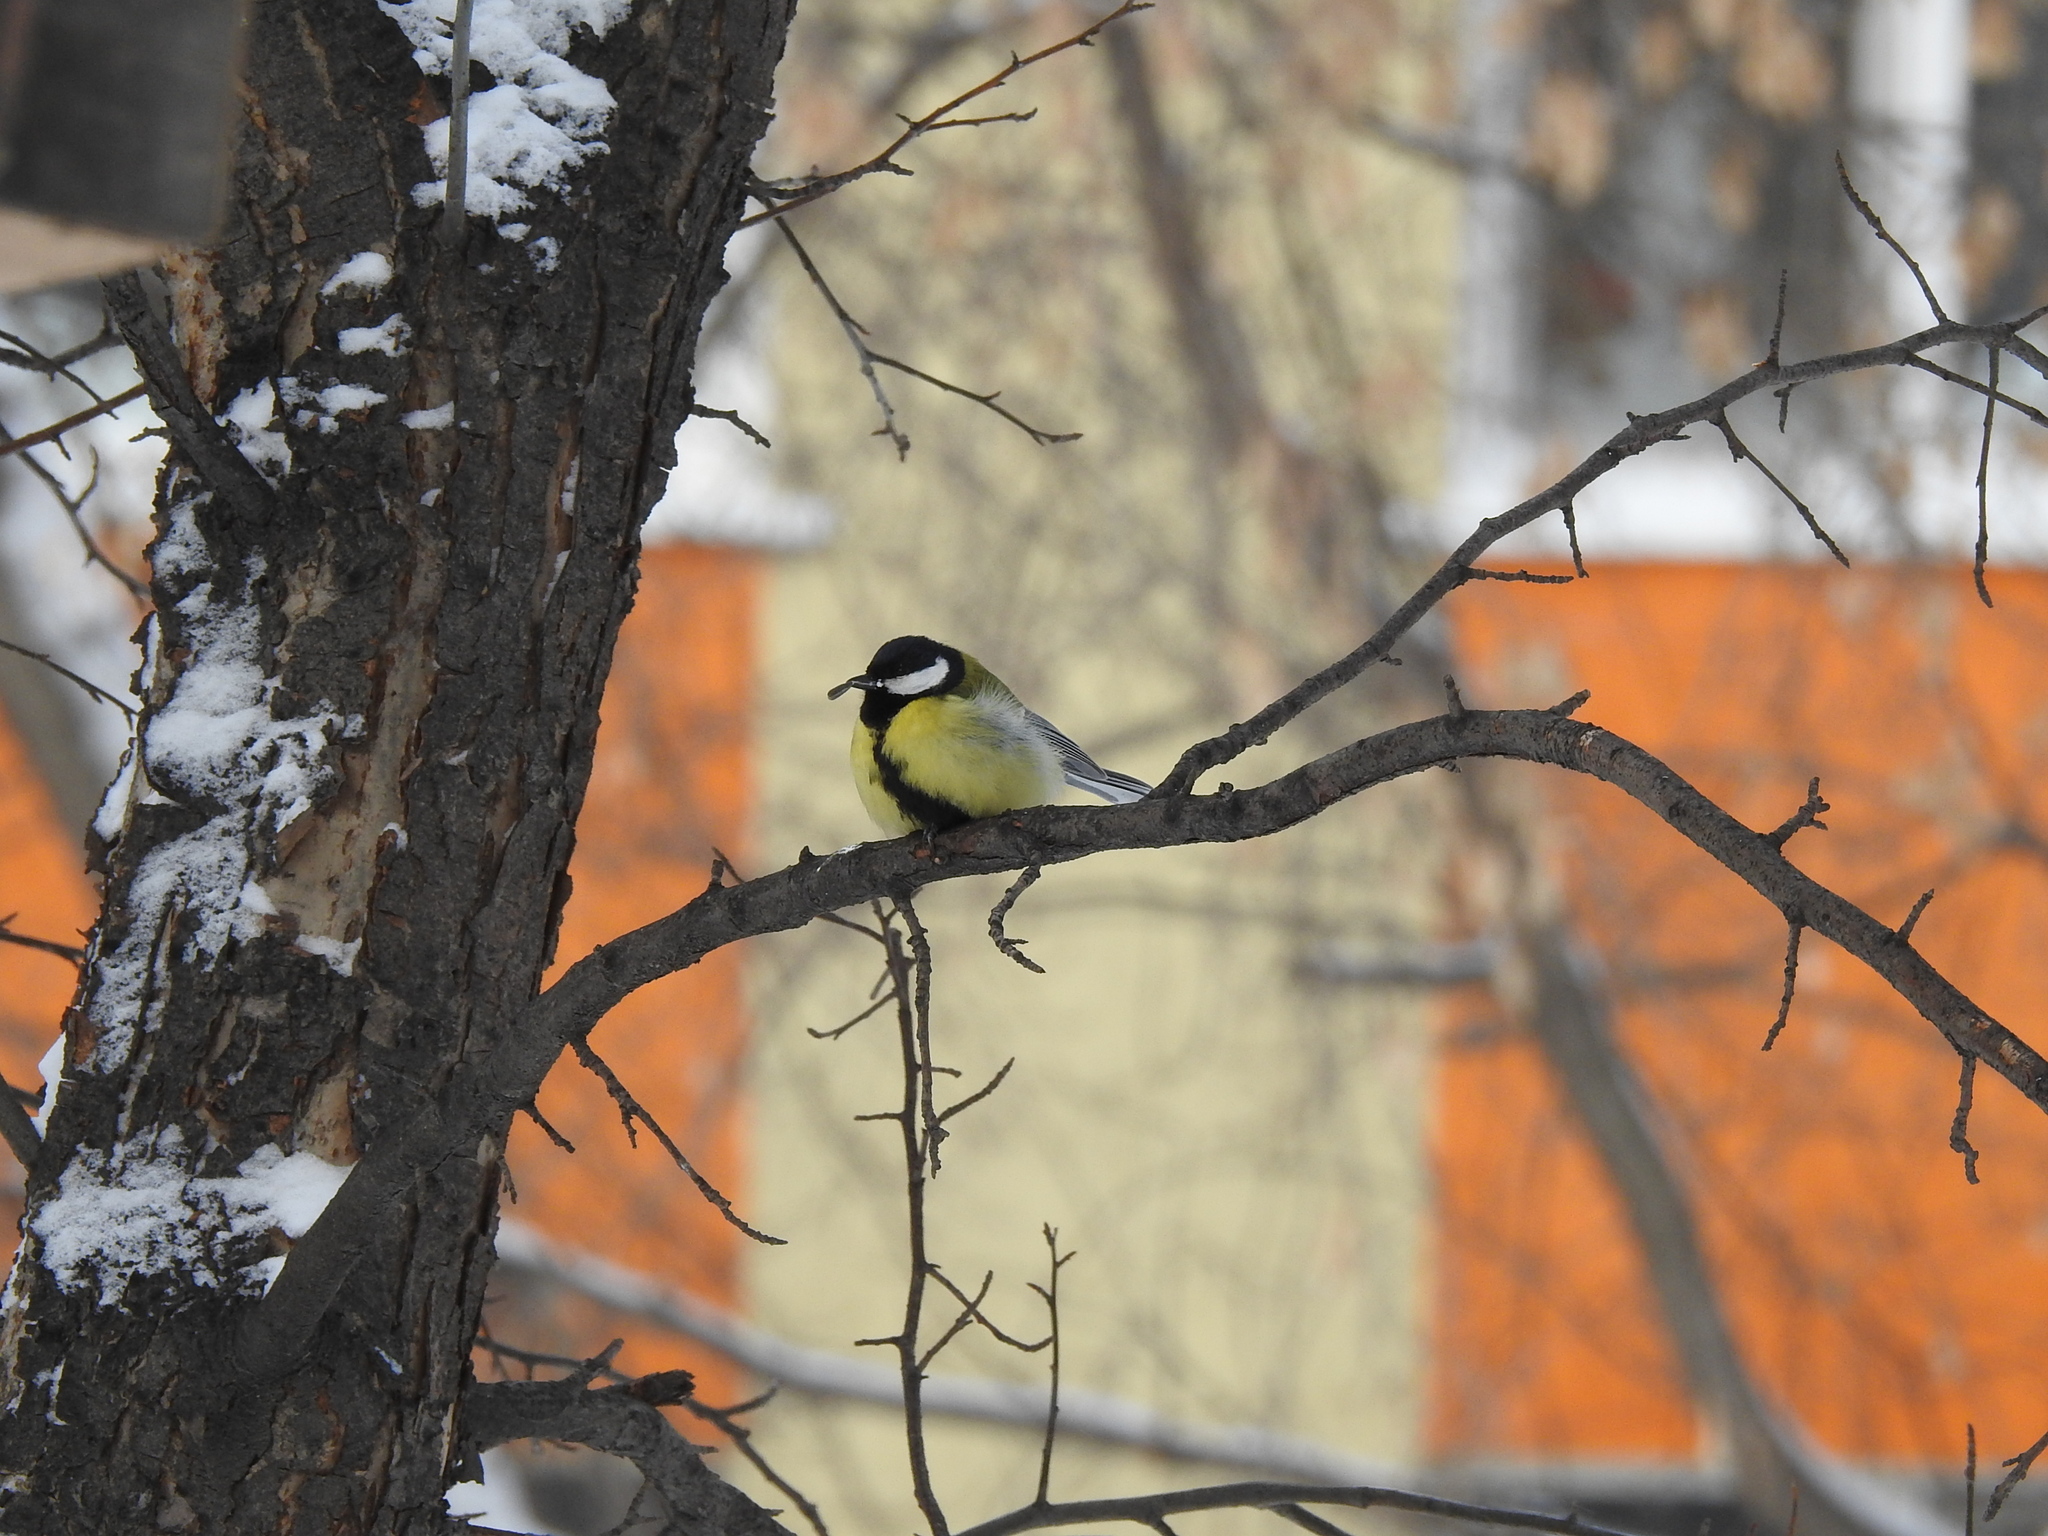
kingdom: Animalia
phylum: Chordata
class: Aves
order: Passeriformes
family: Paridae
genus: Parus
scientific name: Parus major
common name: Great tit
